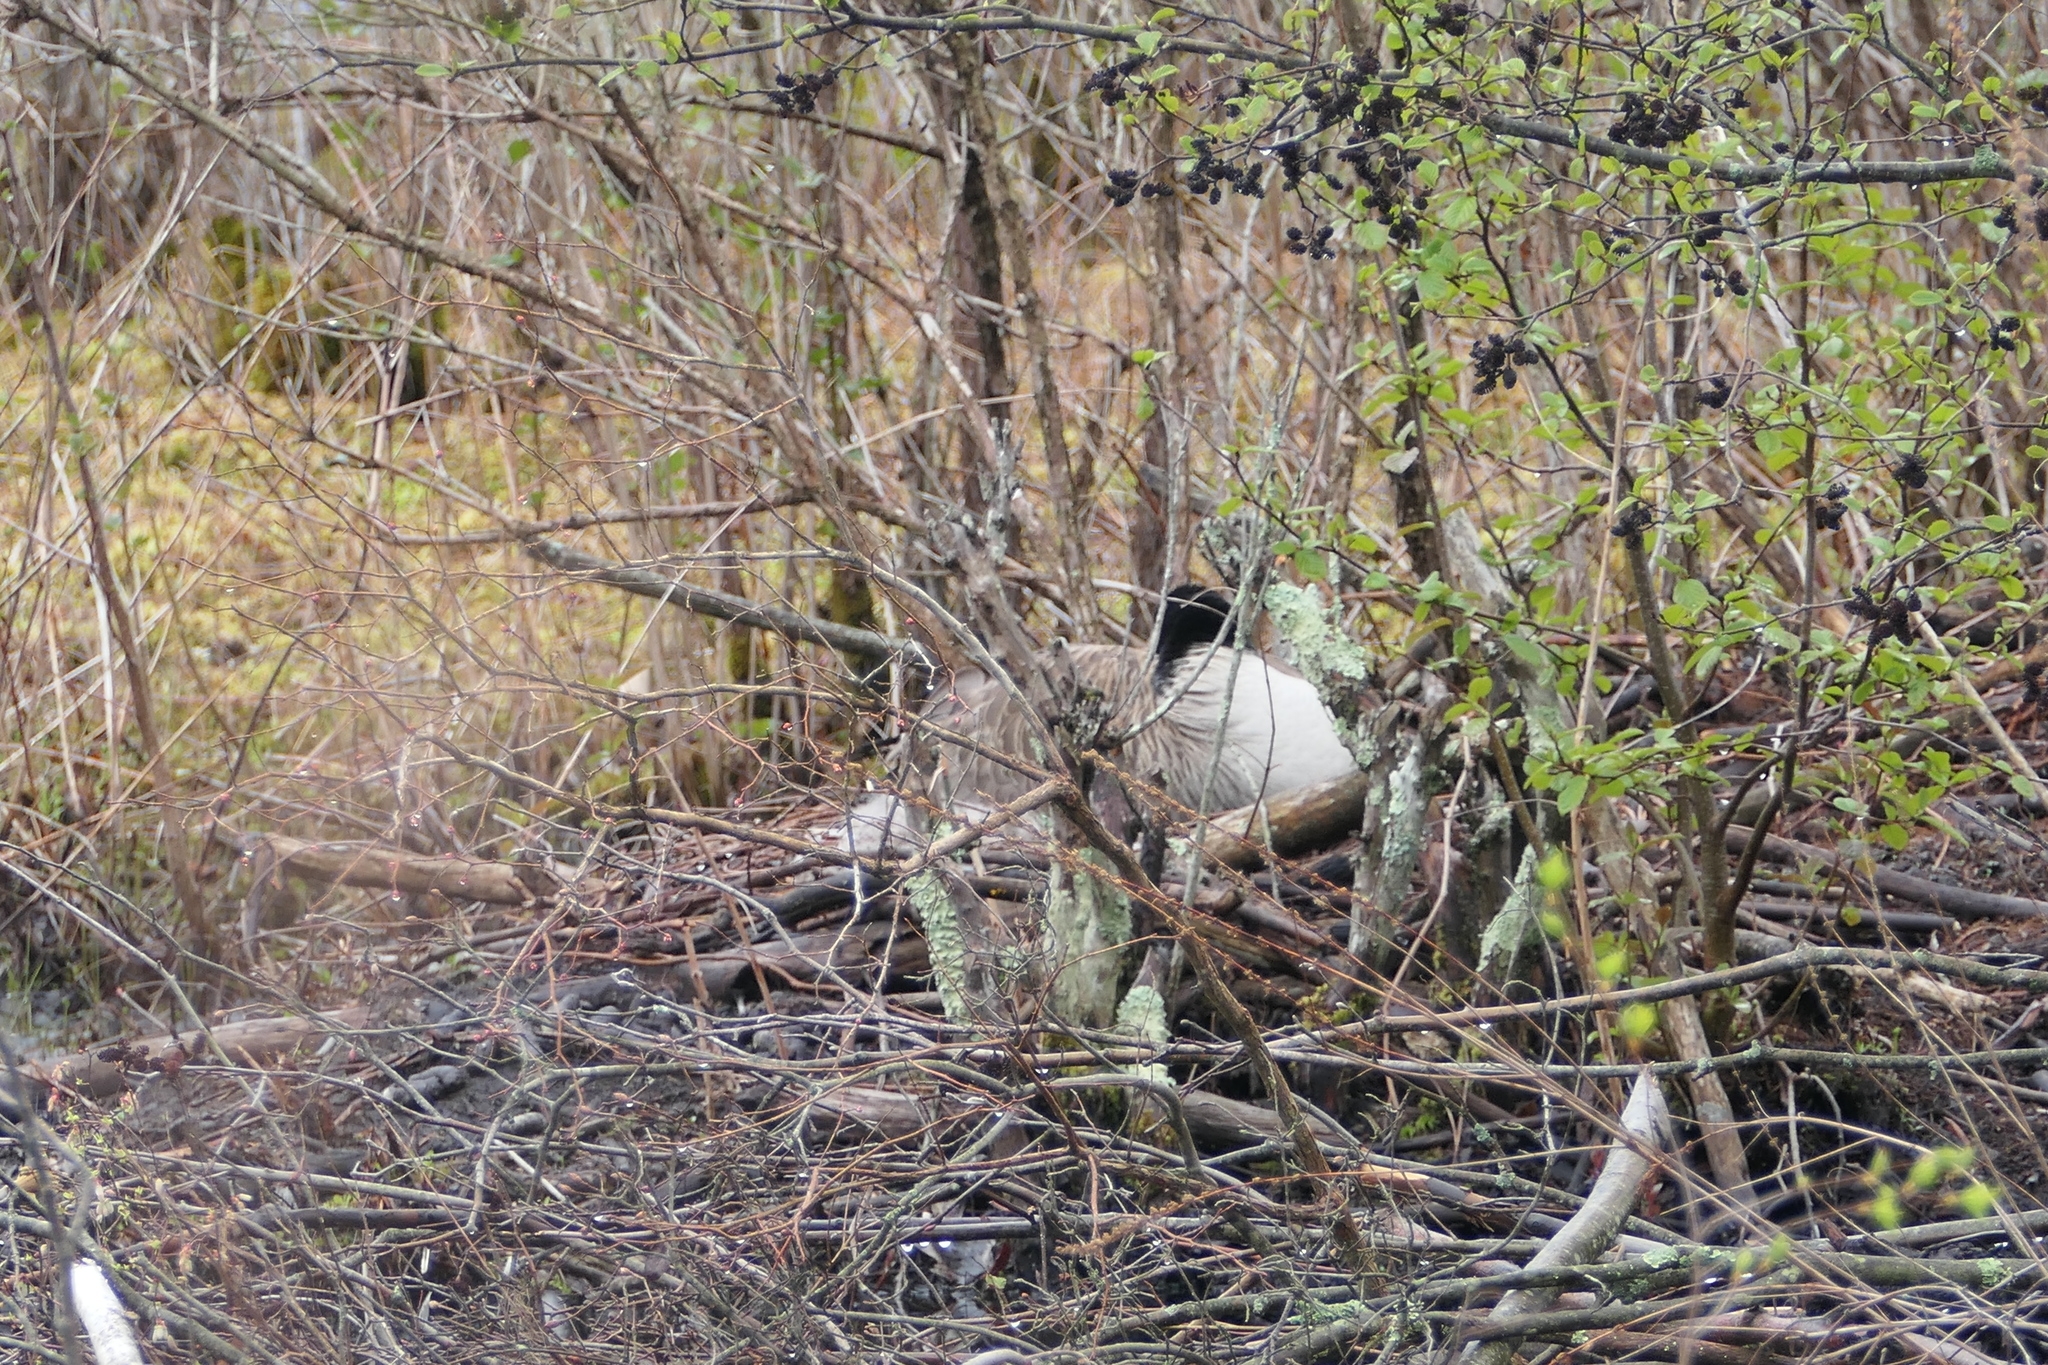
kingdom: Animalia
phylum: Chordata
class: Aves
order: Anseriformes
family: Anatidae
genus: Branta
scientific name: Branta canadensis
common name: Canada goose
